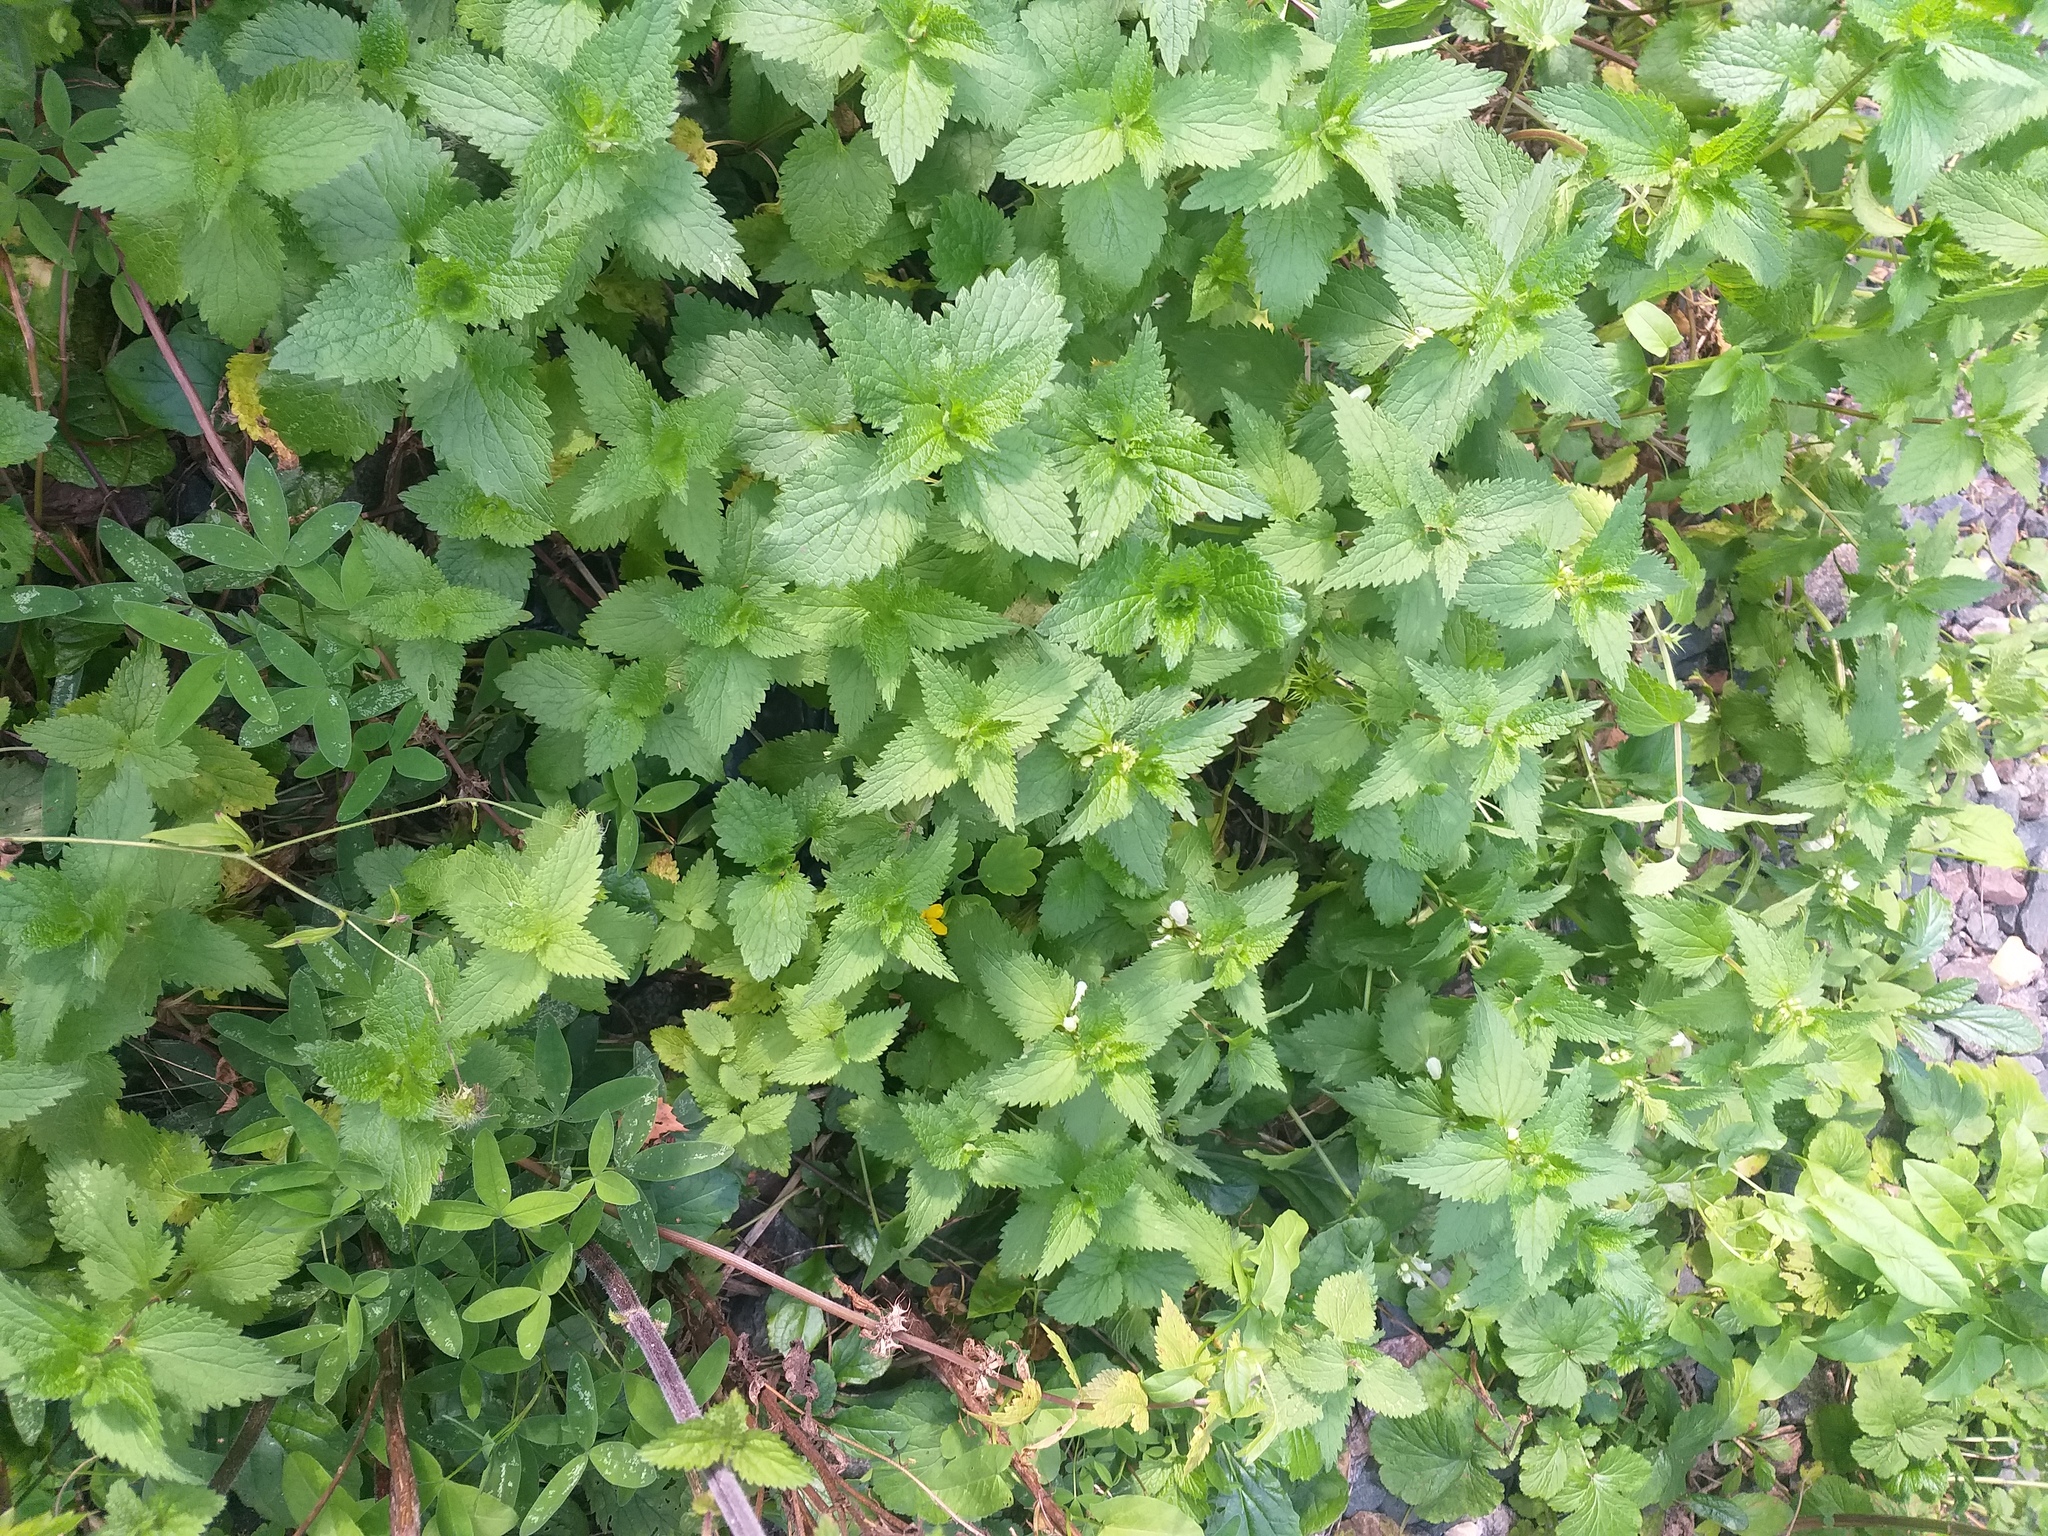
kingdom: Plantae
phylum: Tracheophyta
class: Magnoliopsida
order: Lamiales
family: Lamiaceae
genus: Lamium
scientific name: Lamium album
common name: White dead-nettle
